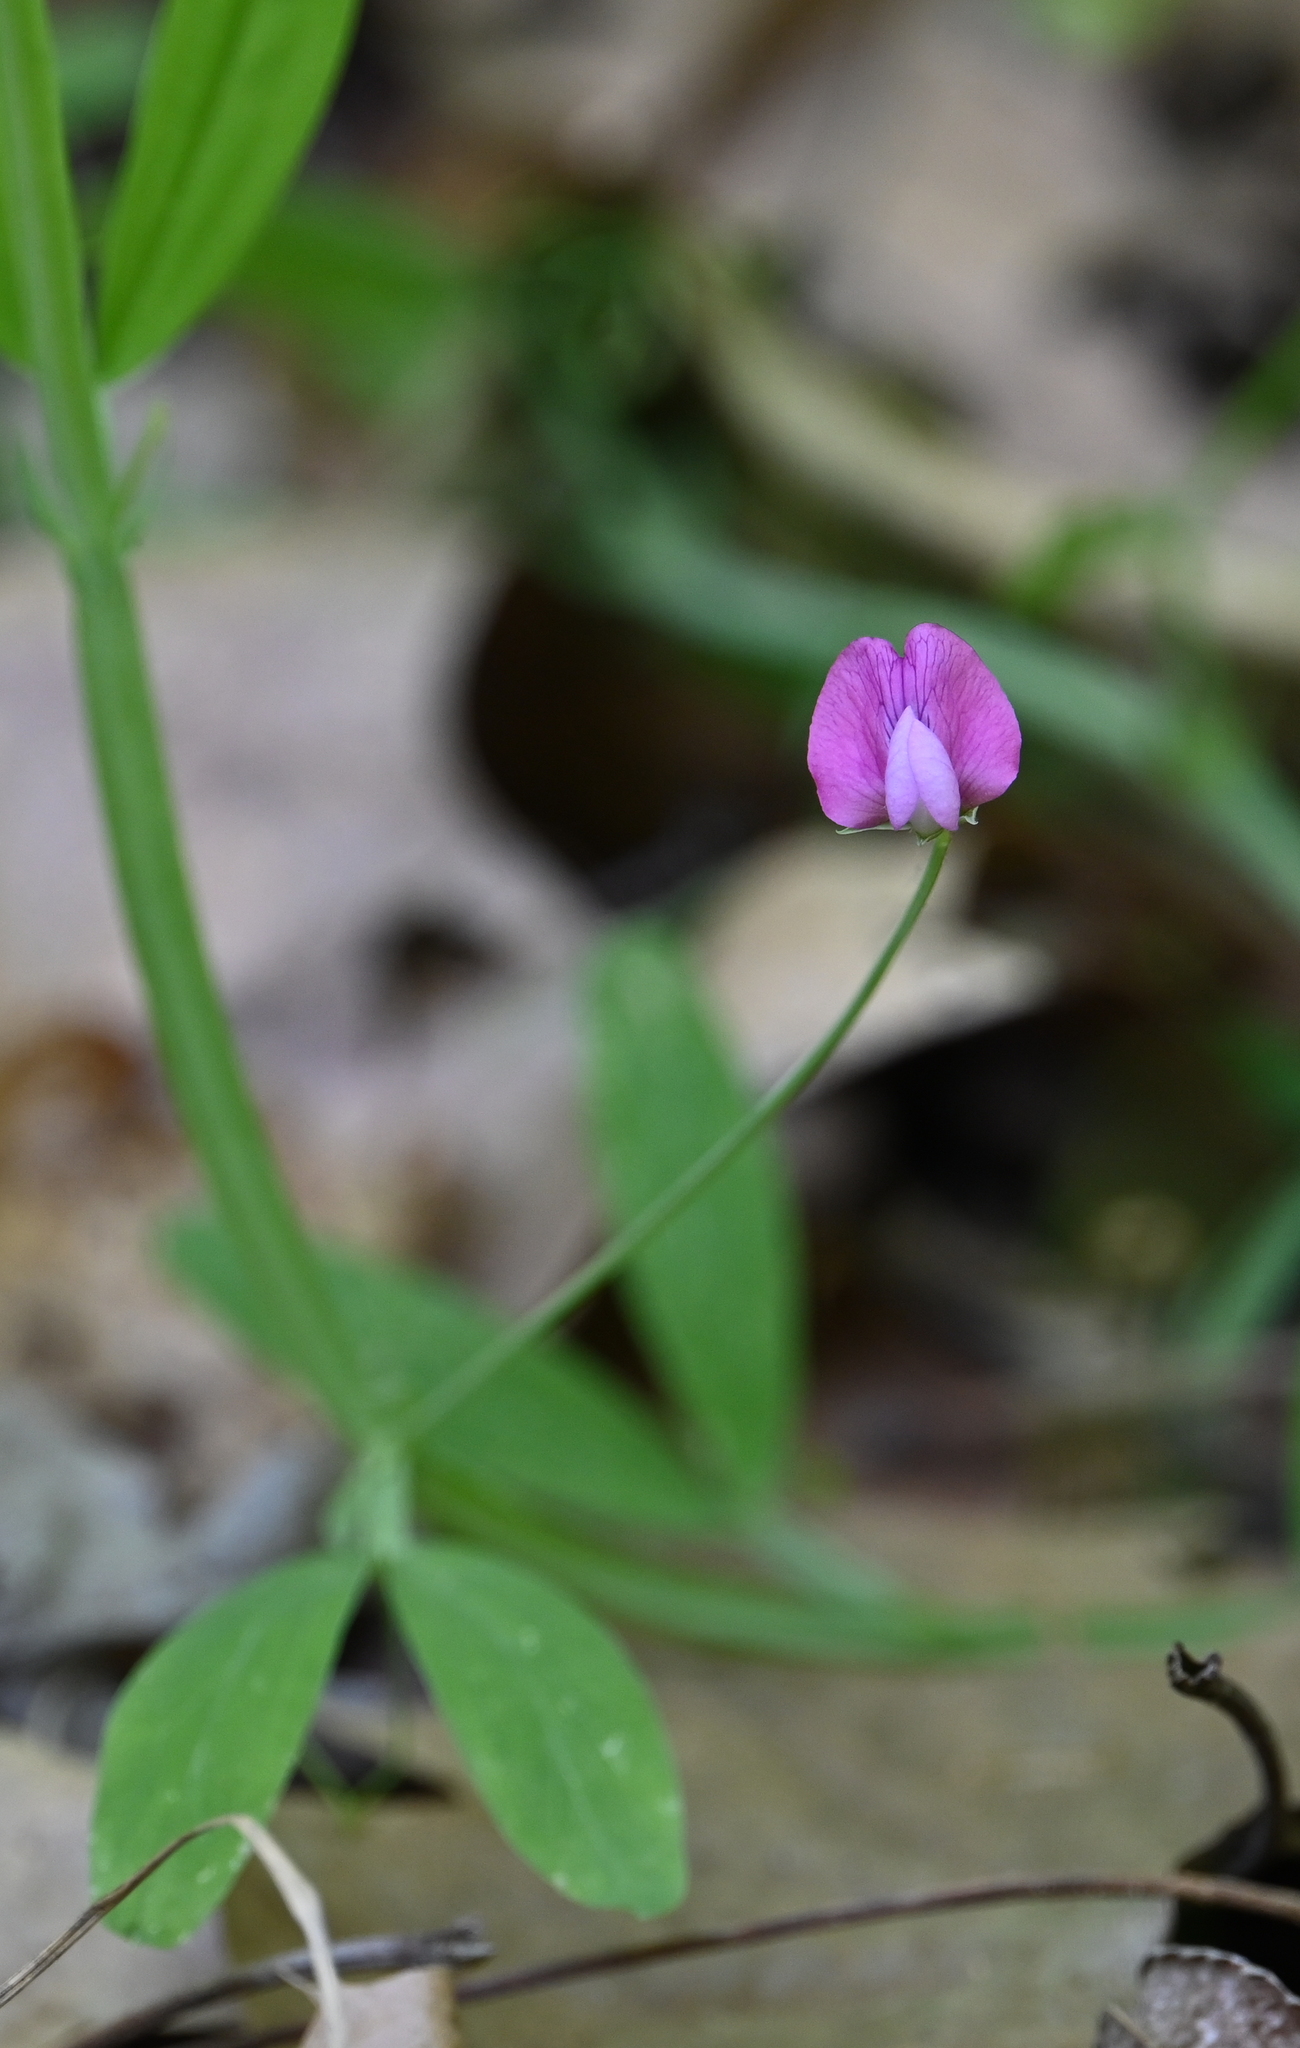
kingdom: Plantae
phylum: Tracheophyta
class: Magnoliopsida
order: Fabales
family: Fabaceae
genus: Lathyrus
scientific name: Lathyrus hirsutus
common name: Hairy vetchling
